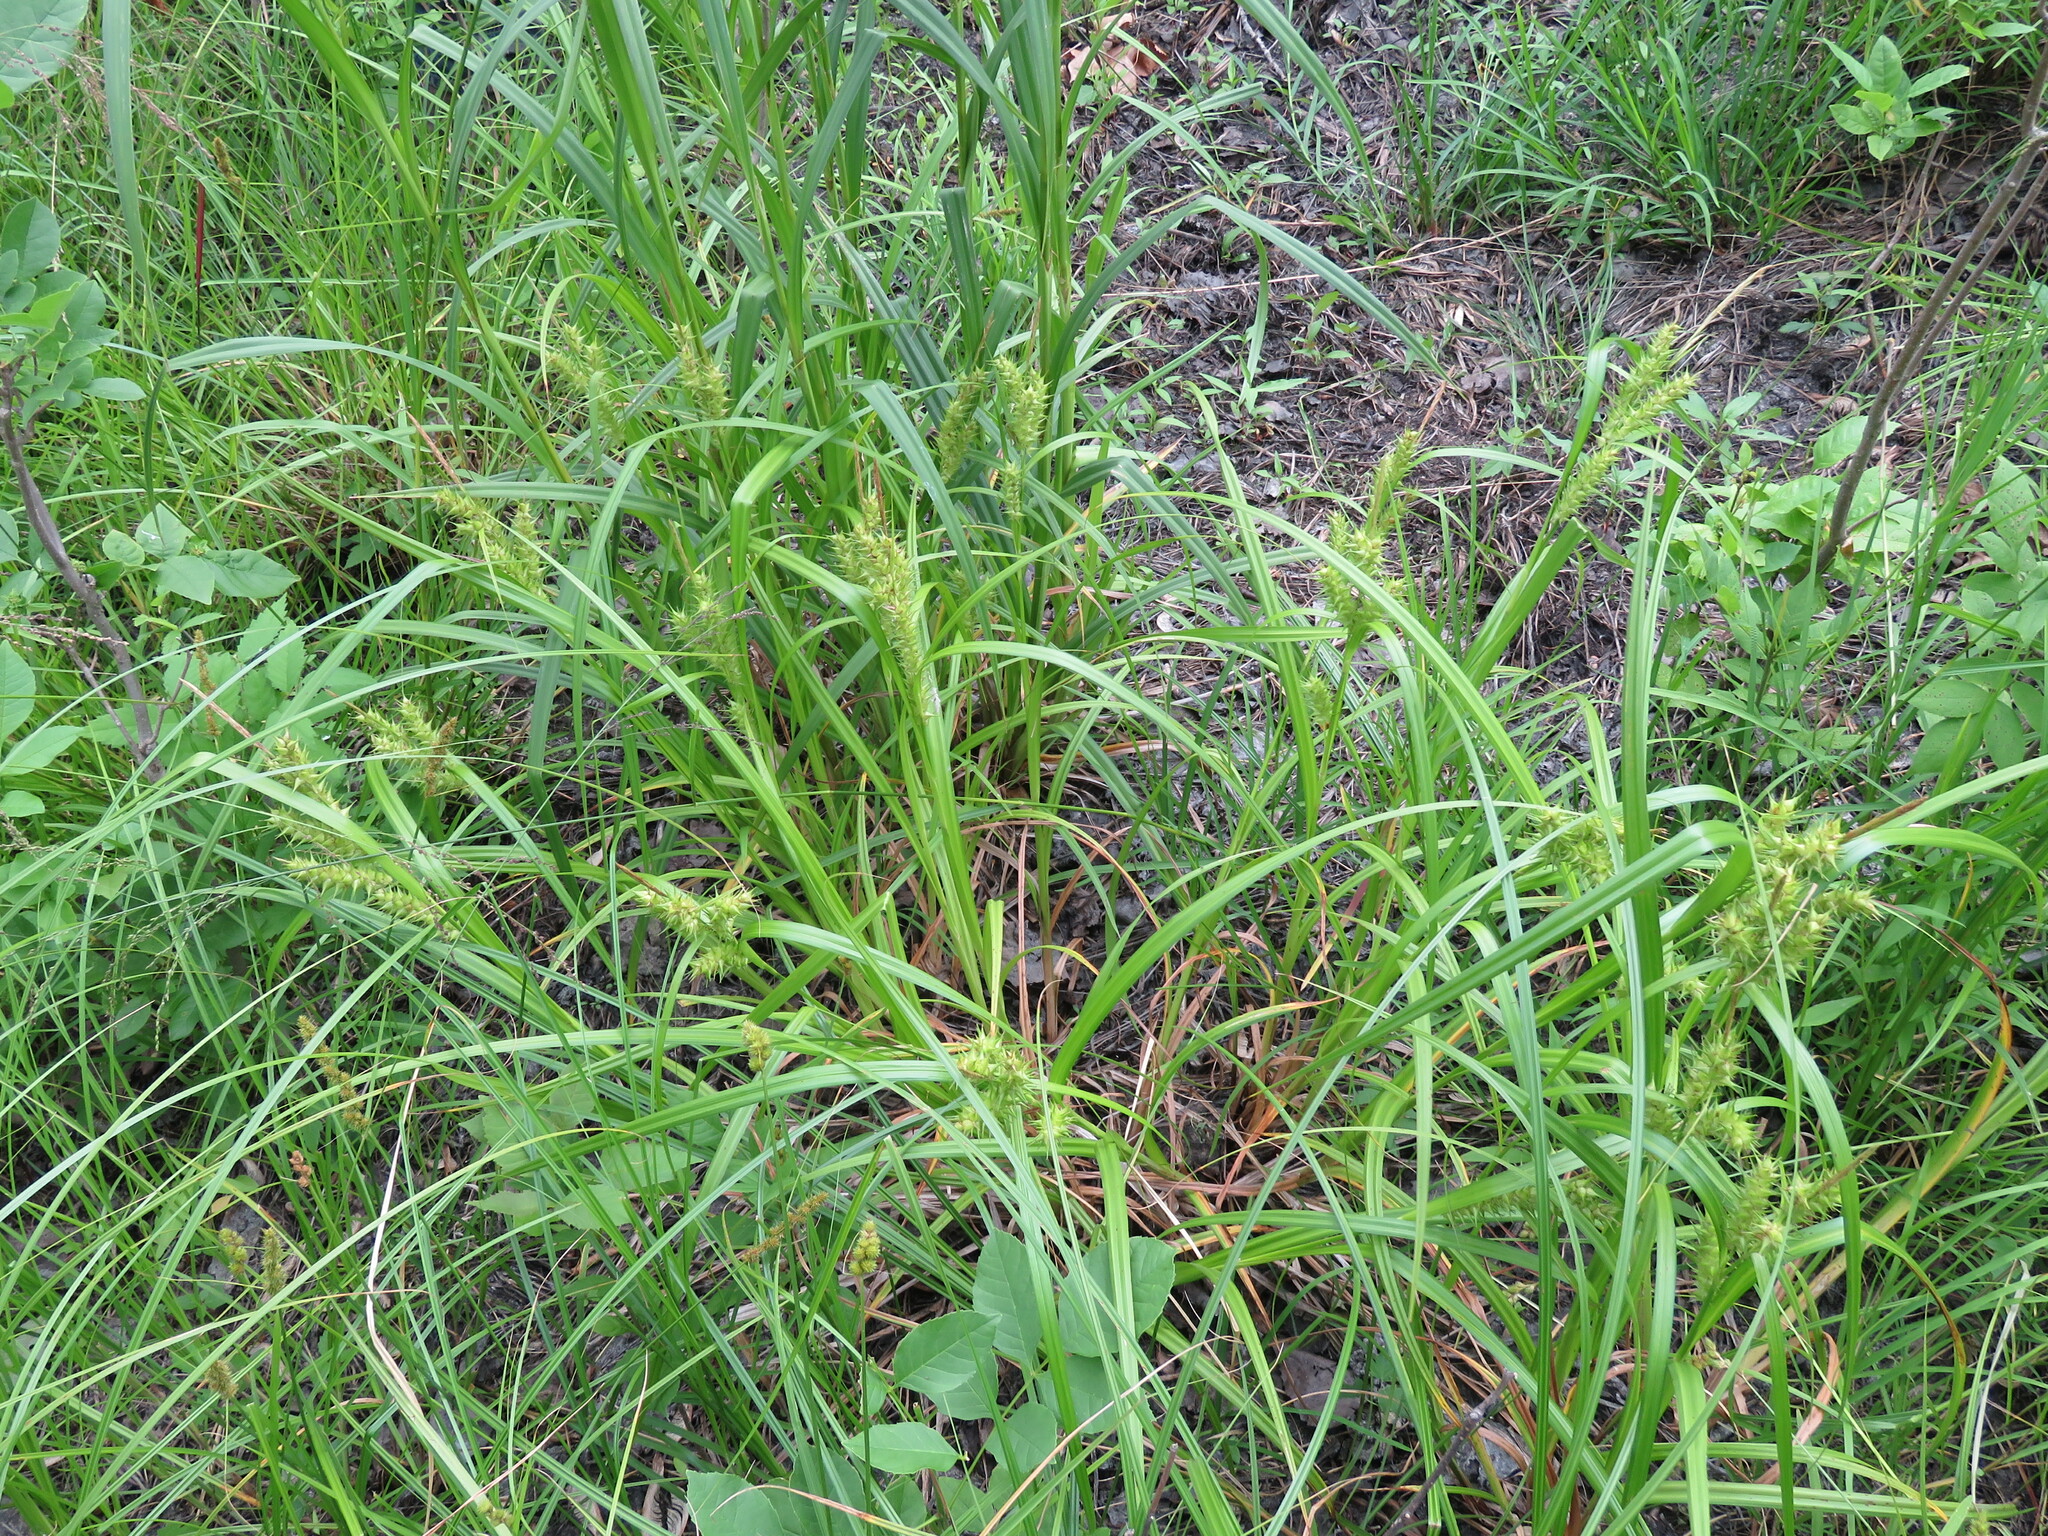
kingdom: Plantae
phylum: Tracheophyta
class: Liliopsida
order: Poales
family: Cyperaceae
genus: Carex
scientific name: Carex lupuliformis
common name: False hop sedge
